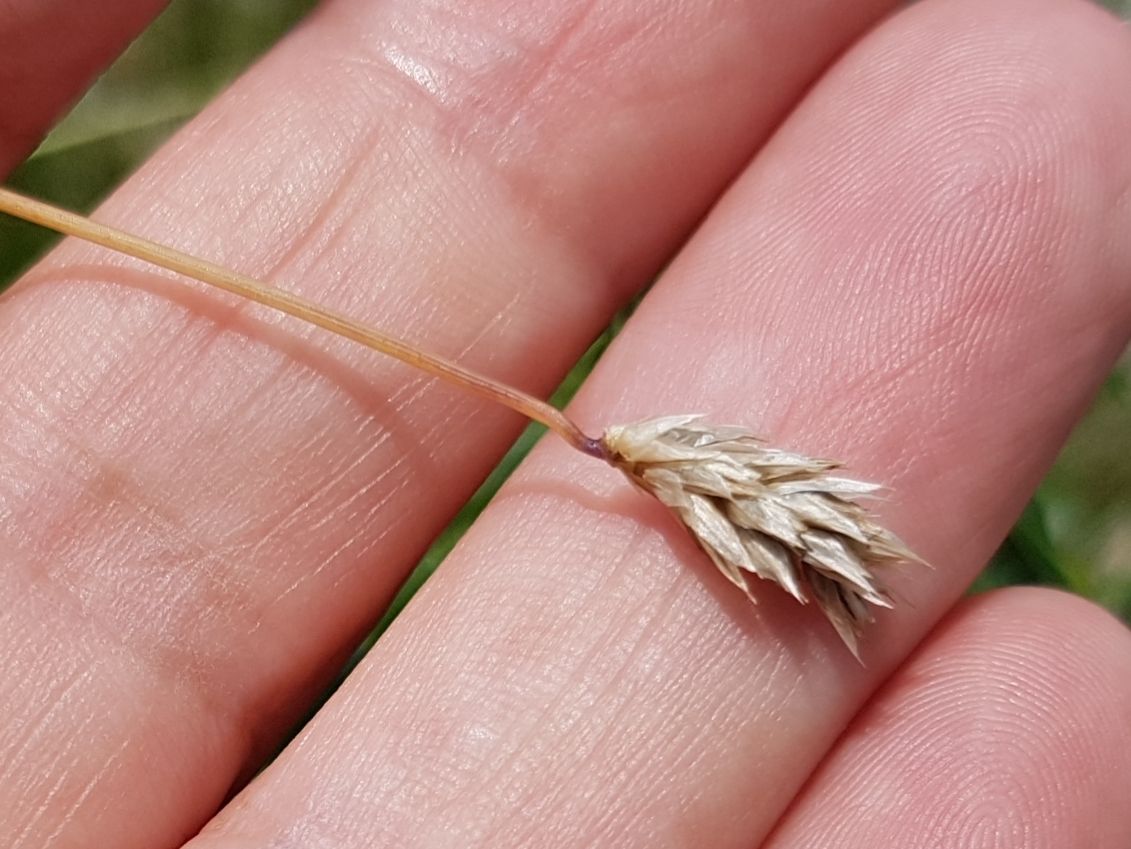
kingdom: Plantae
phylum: Tracheophyta
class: Liliopsida
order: Poales
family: Poaceae
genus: Sesleria
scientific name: Sesleria caerulea
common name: Blue moor-grass
